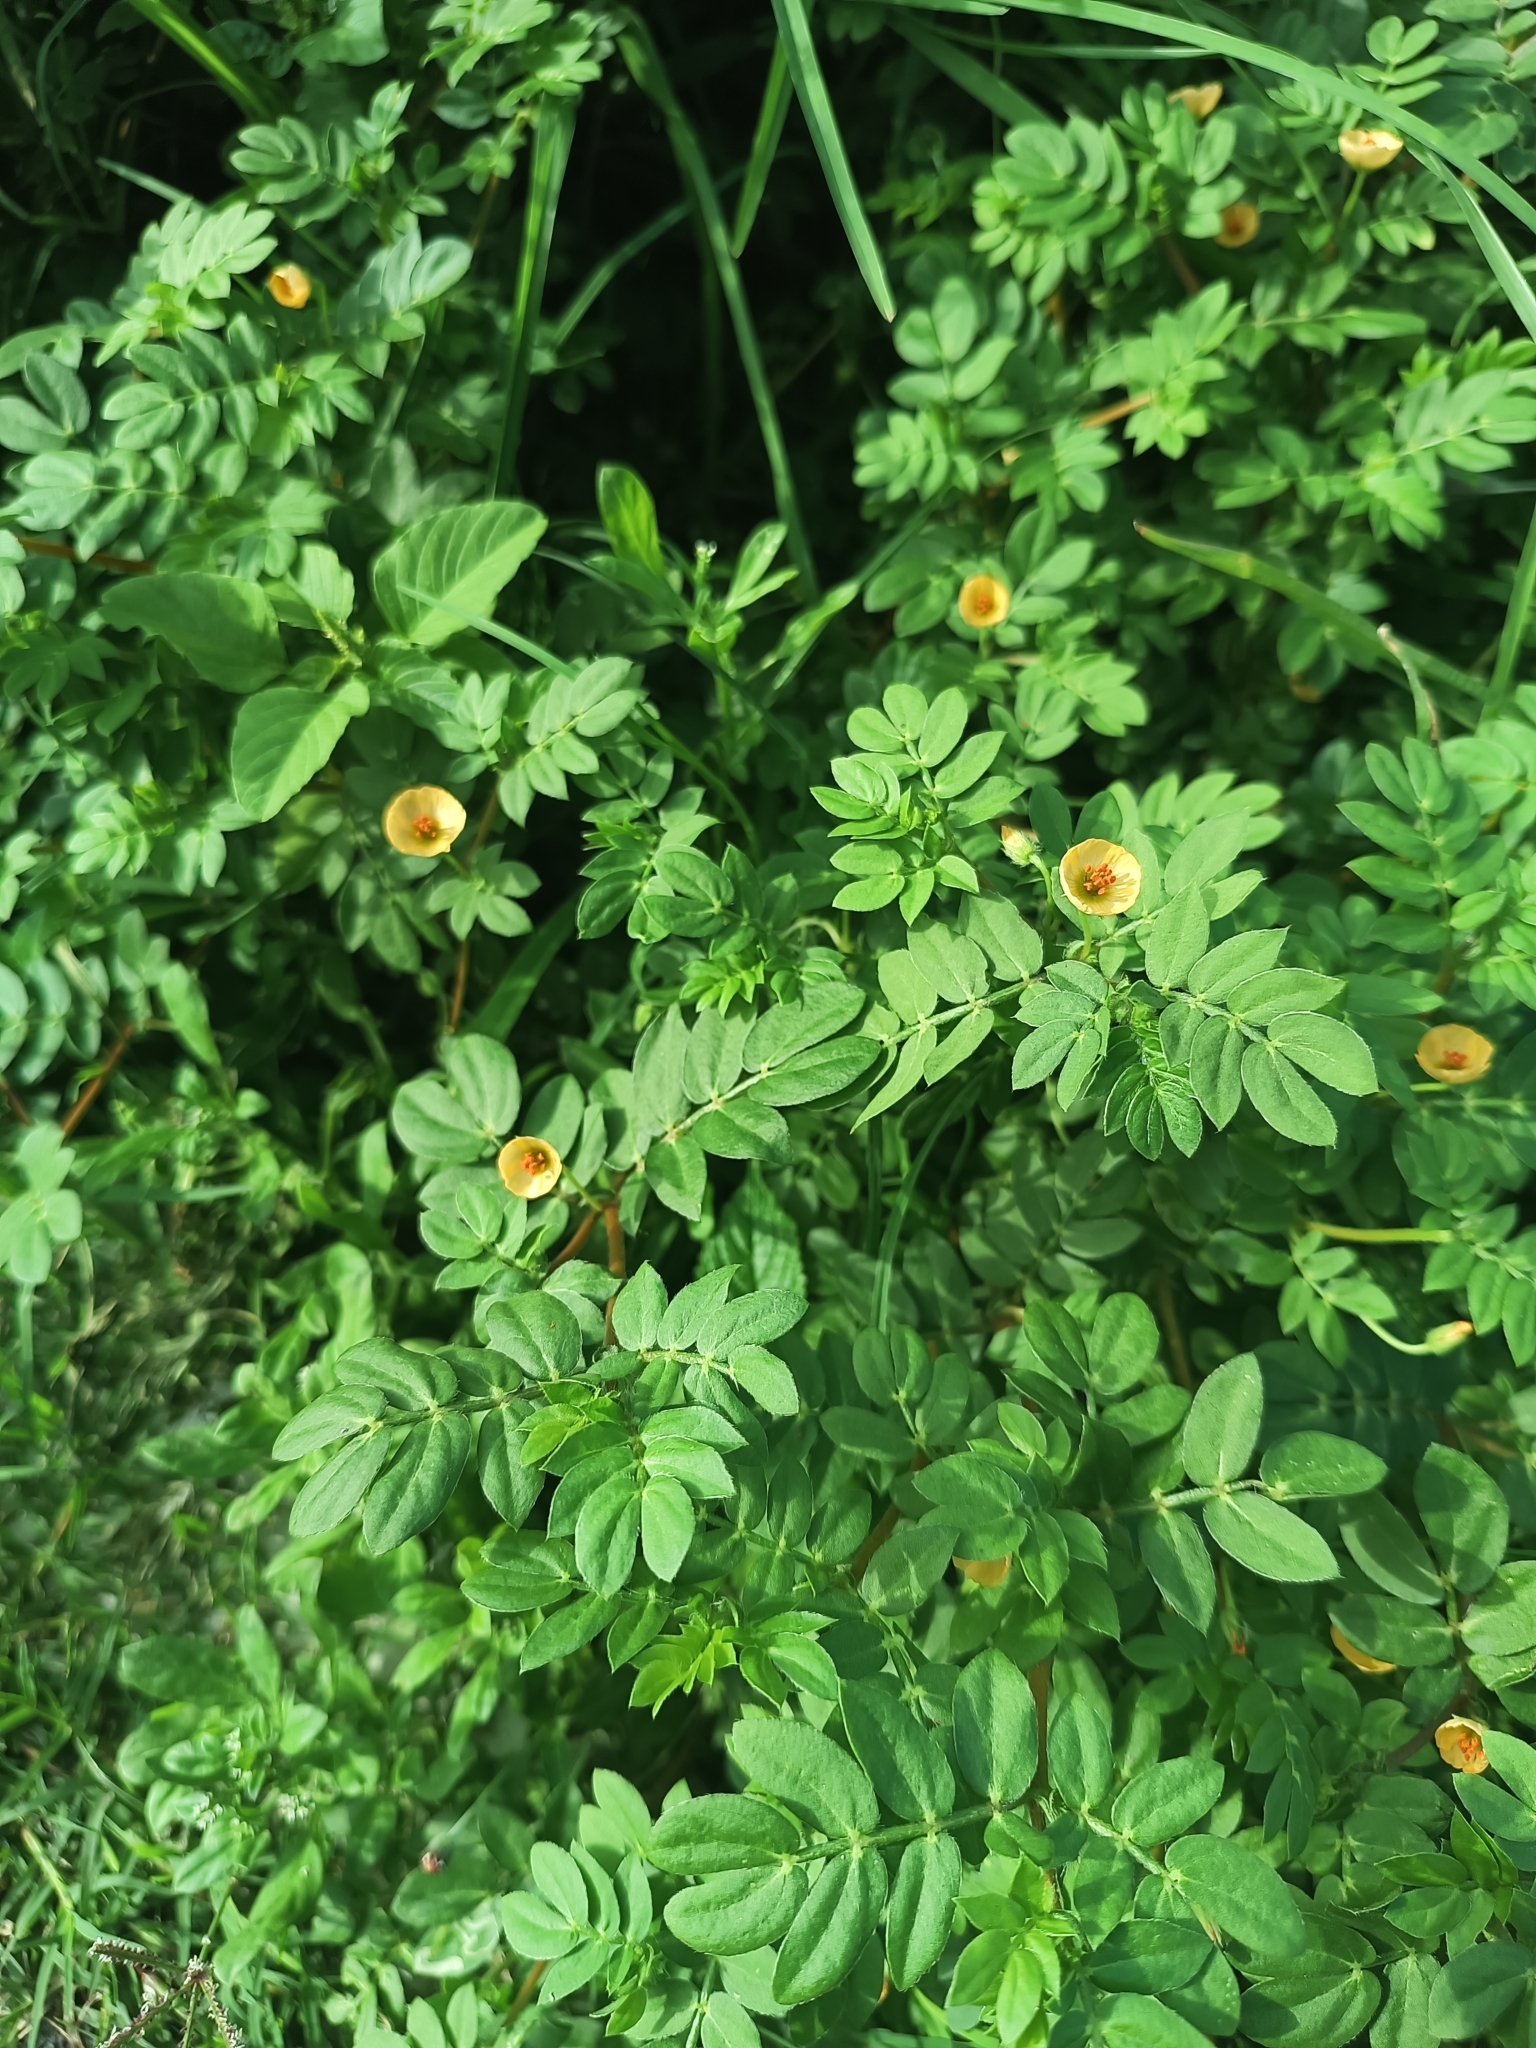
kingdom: Plantae
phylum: Tracheophyta
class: Magnoliopsida
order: Zygophyllales
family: Zygophyllaceae
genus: Kallstroemia
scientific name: Kallstroemia maxima
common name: Big caltropa
